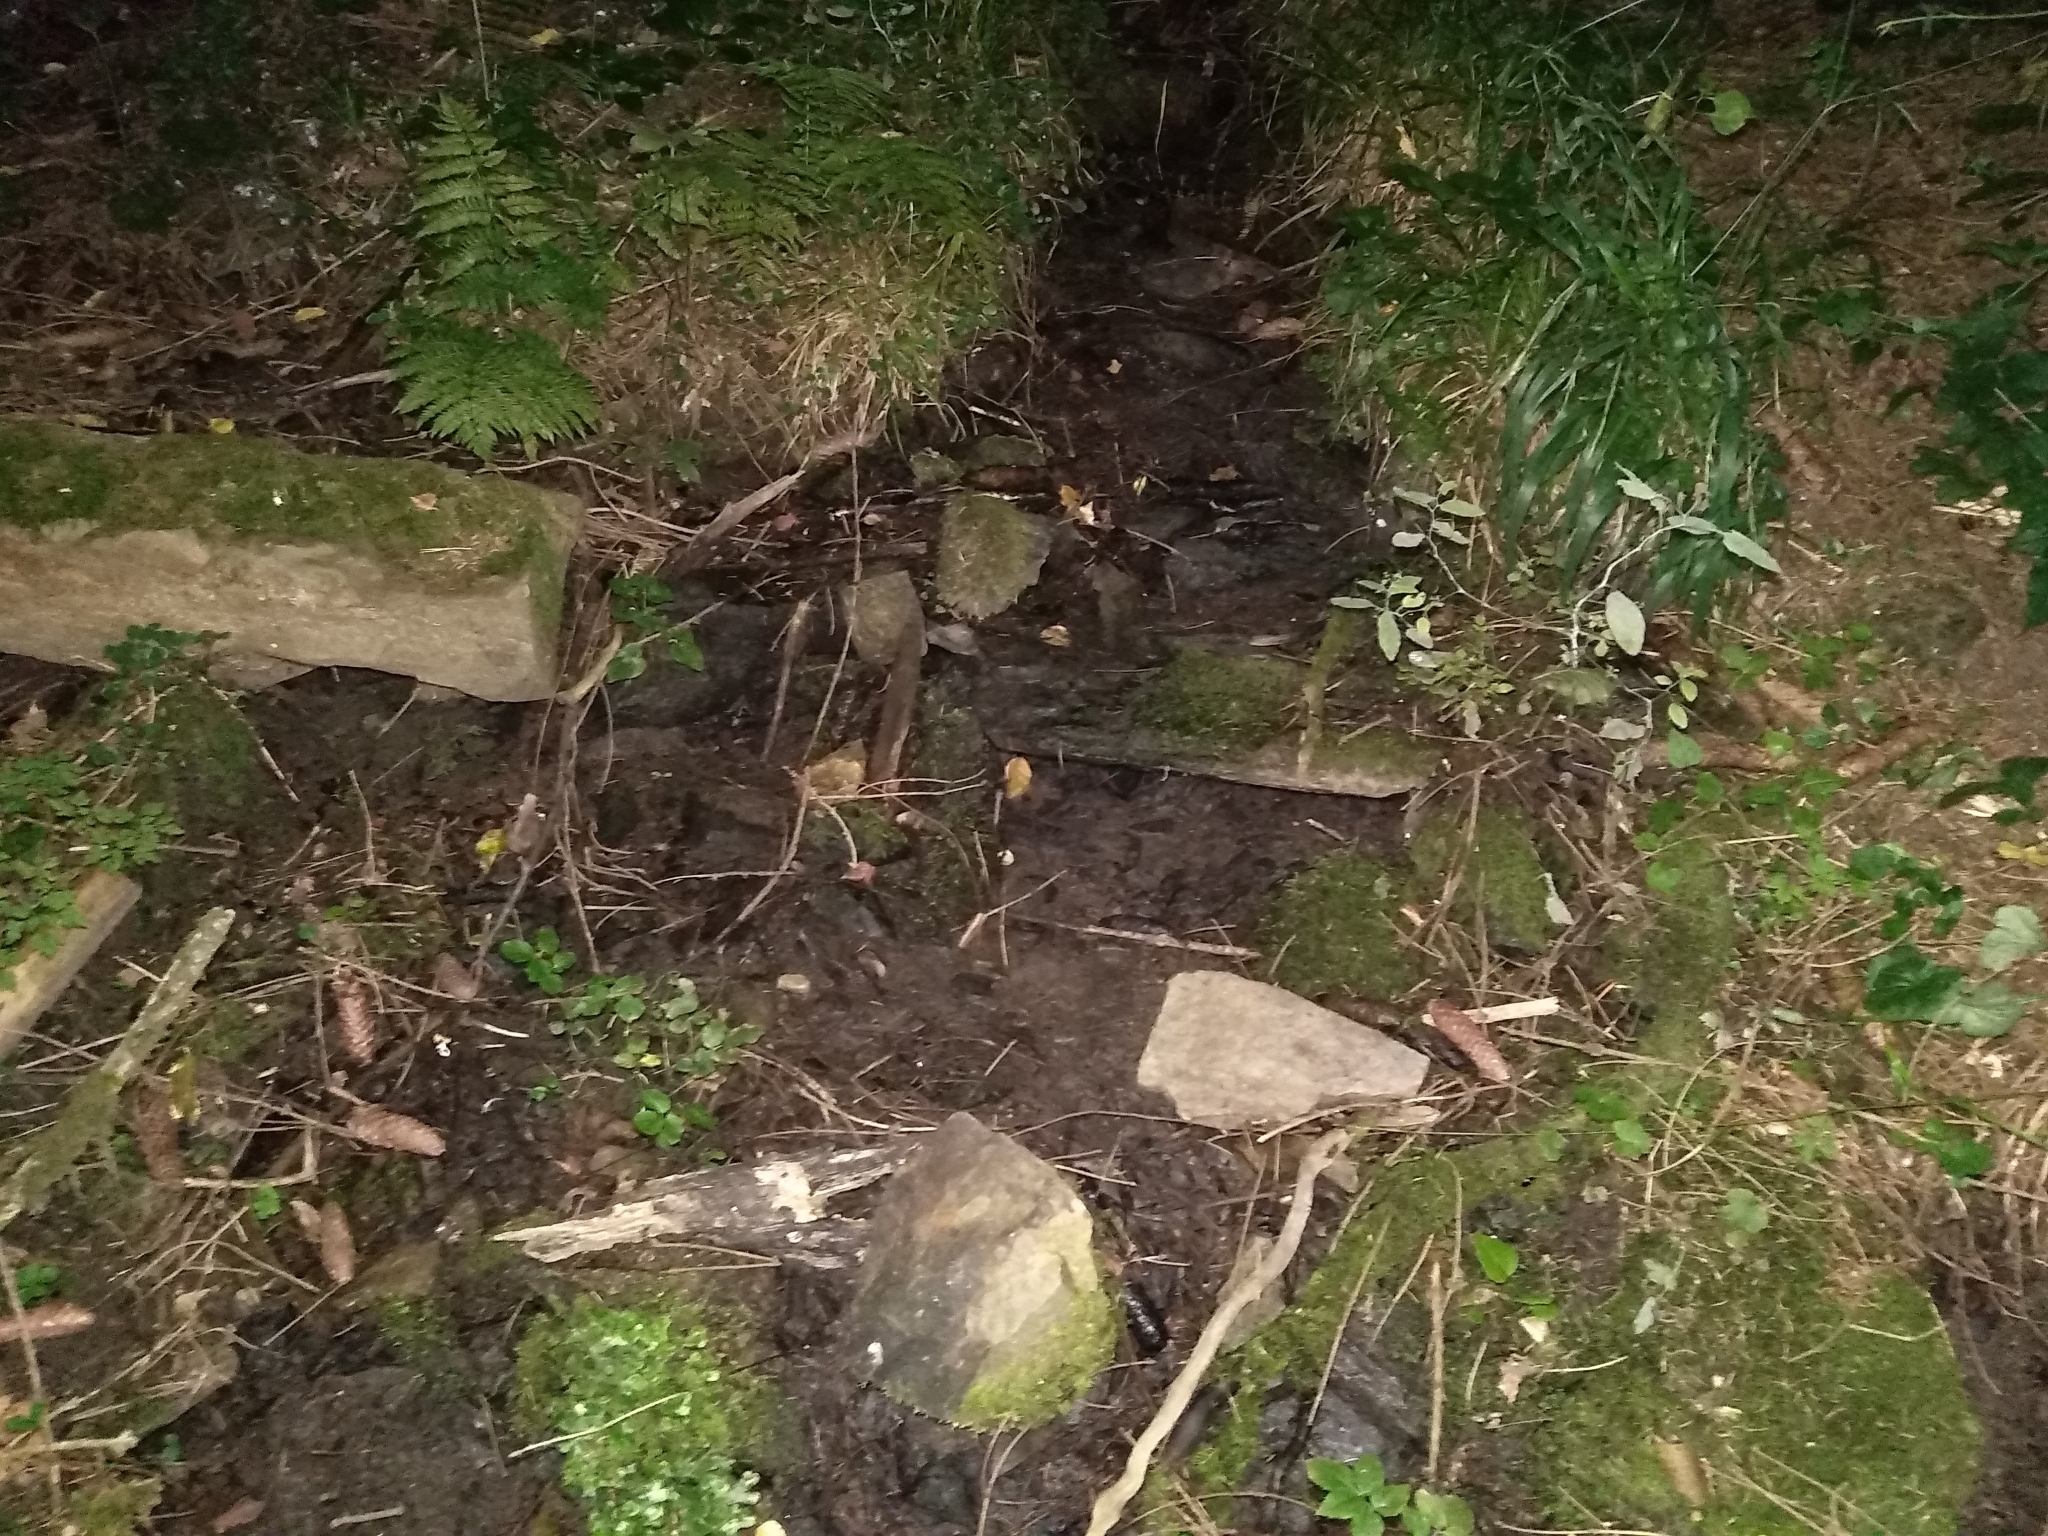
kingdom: Animalia
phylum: Arthropoda
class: Malacostraca
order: Decapoda
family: Astacidae
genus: Austropotamobius
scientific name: Austropotamobius torrentium
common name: Stone crayfish
